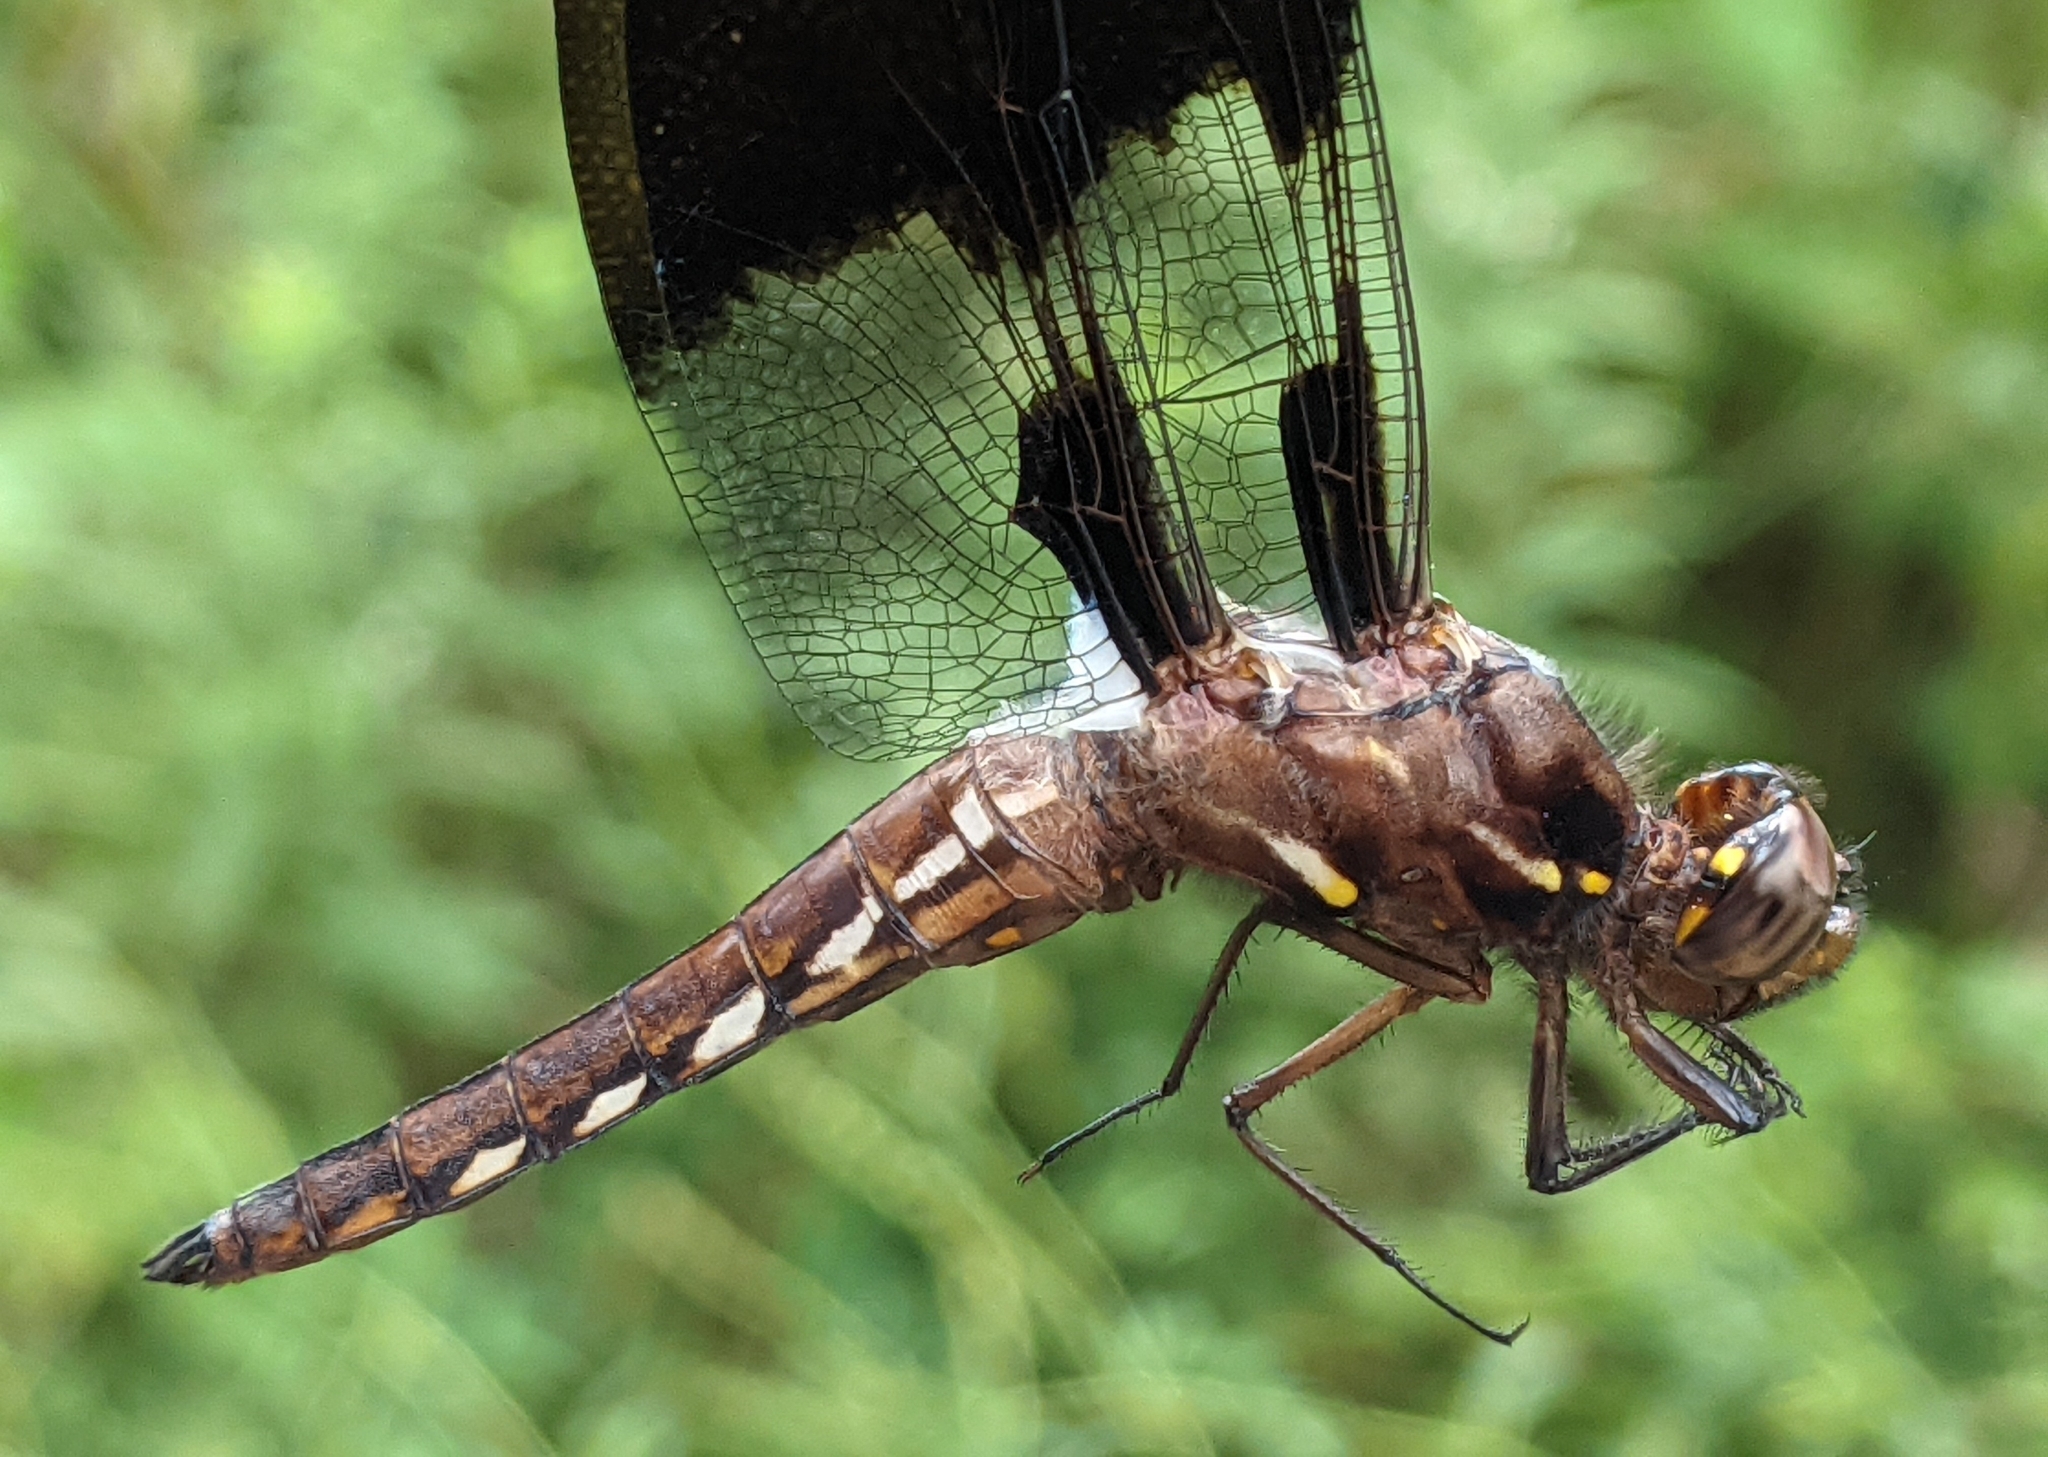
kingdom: Animalia
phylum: Arthropoda
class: Insecta
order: Odonata
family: Libellulidae
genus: Plathemis
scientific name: Plathemis lydia
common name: Common whitetail
